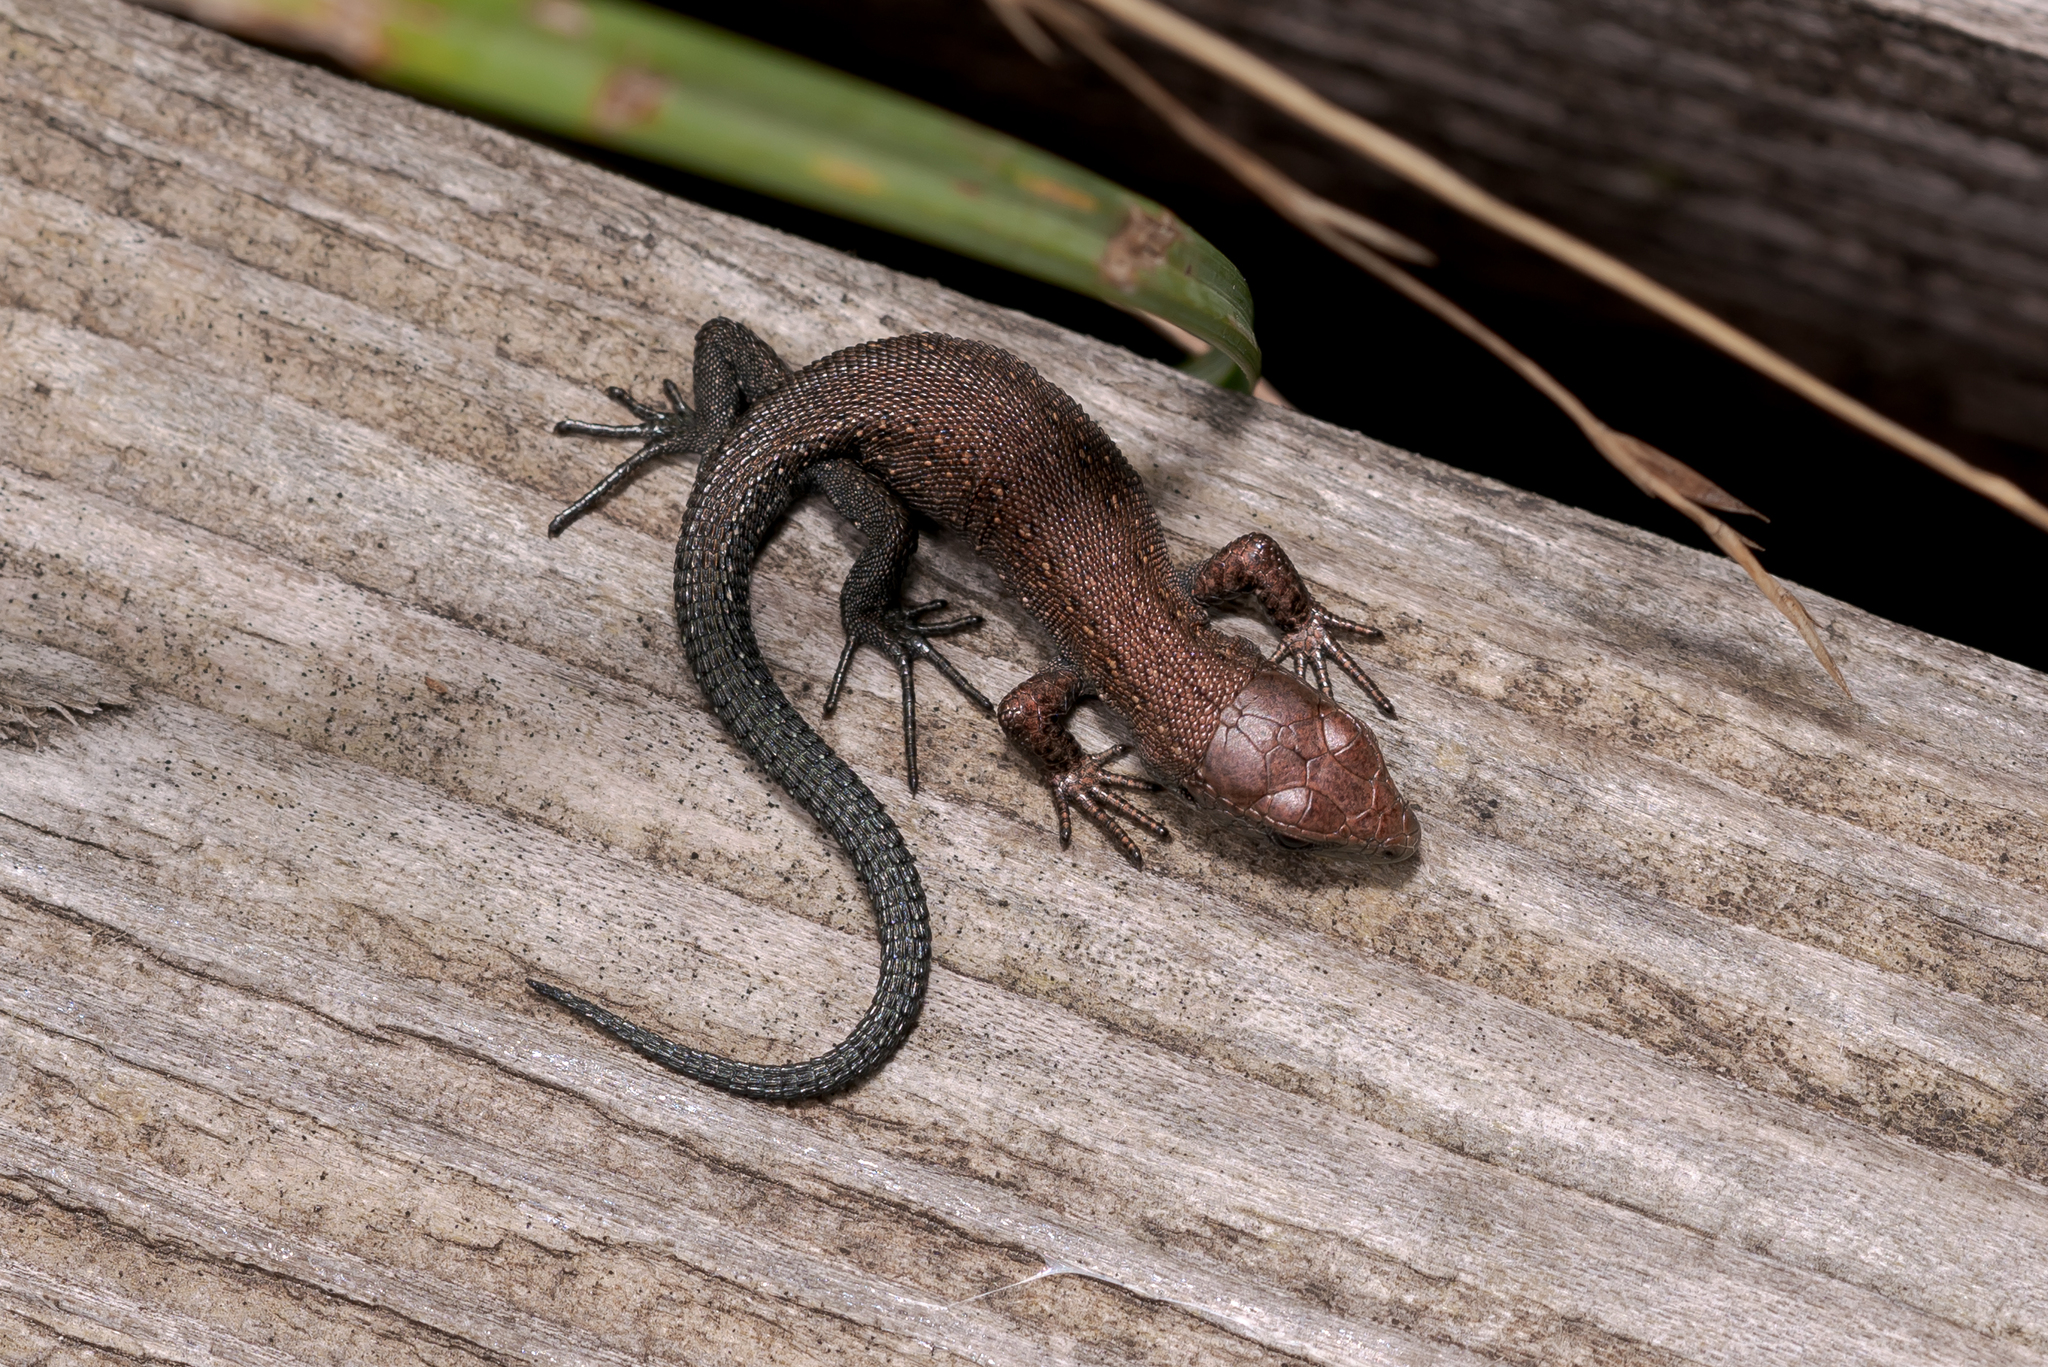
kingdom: Animalia
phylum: Chordata
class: Squamata
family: Lacertidae
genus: Zootoca
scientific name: Zootoca vivipara
